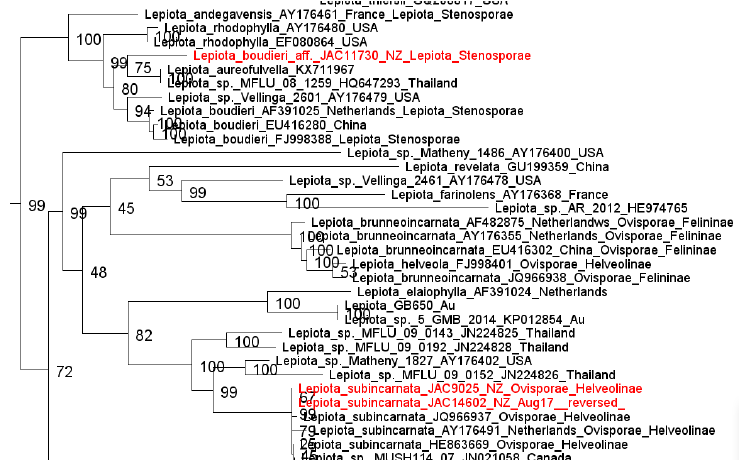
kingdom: Fungi
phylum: Basidiomycota
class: Agaricomycetes
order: Agaricales
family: Agaricaceae
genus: Lepiota
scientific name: Lepiota boudieri
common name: Girdled dapperling
